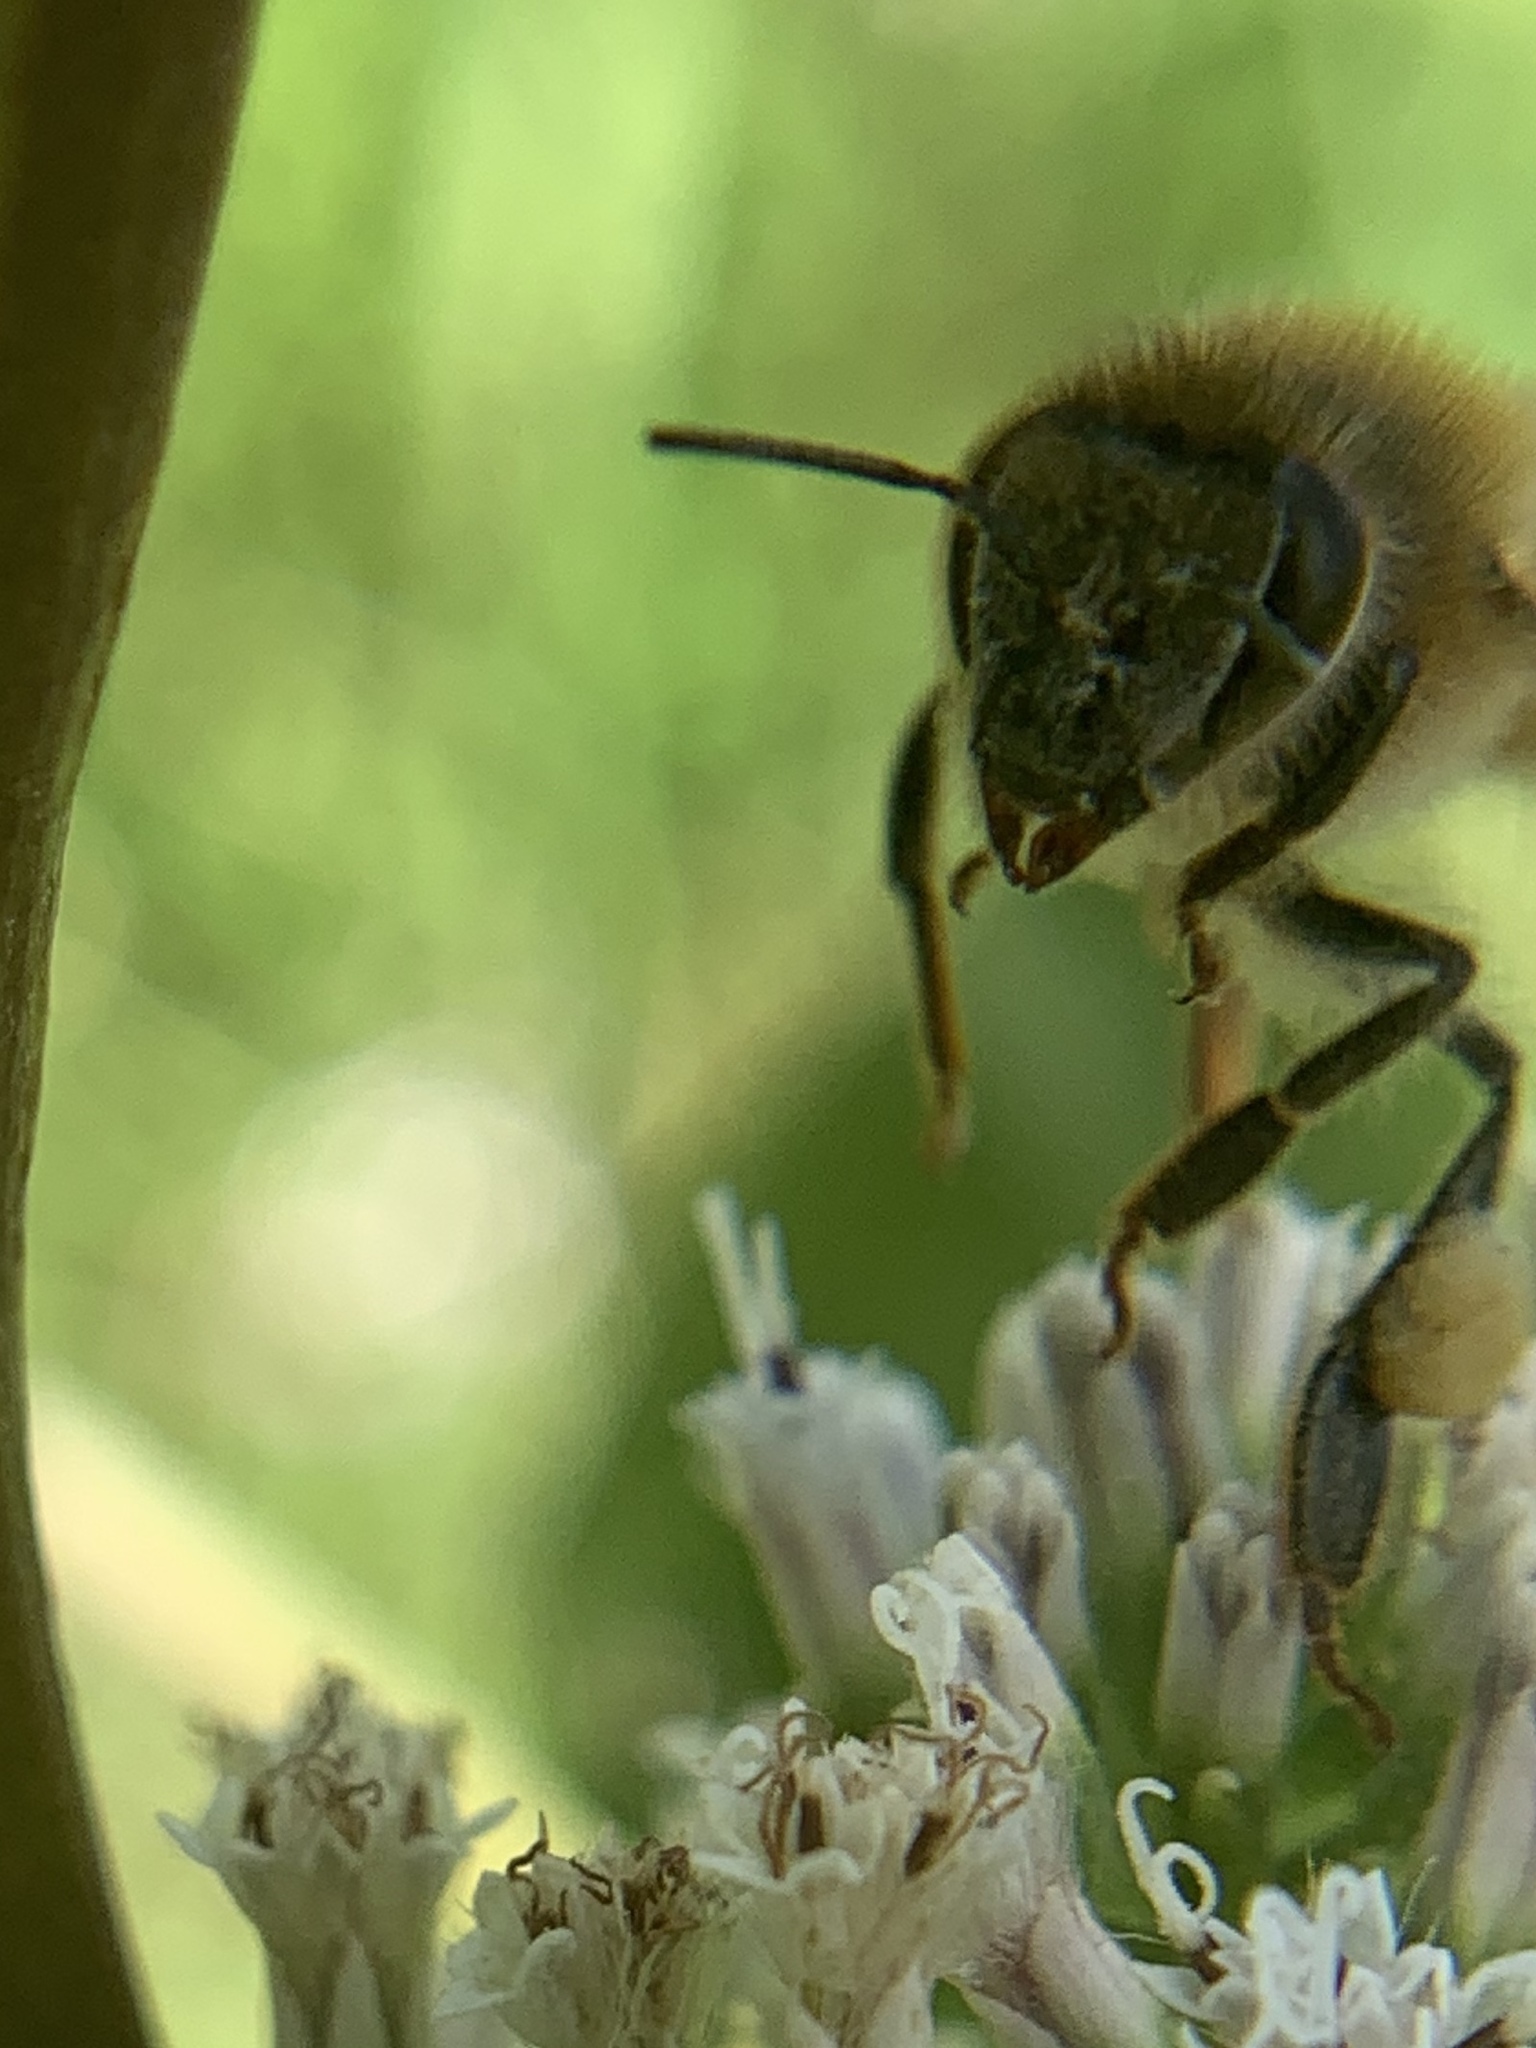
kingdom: Animalia
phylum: Arthropoda
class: Insecta
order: Hymenoptera
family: Apidae
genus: Apis
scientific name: Apis mellifera
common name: Honey bee
